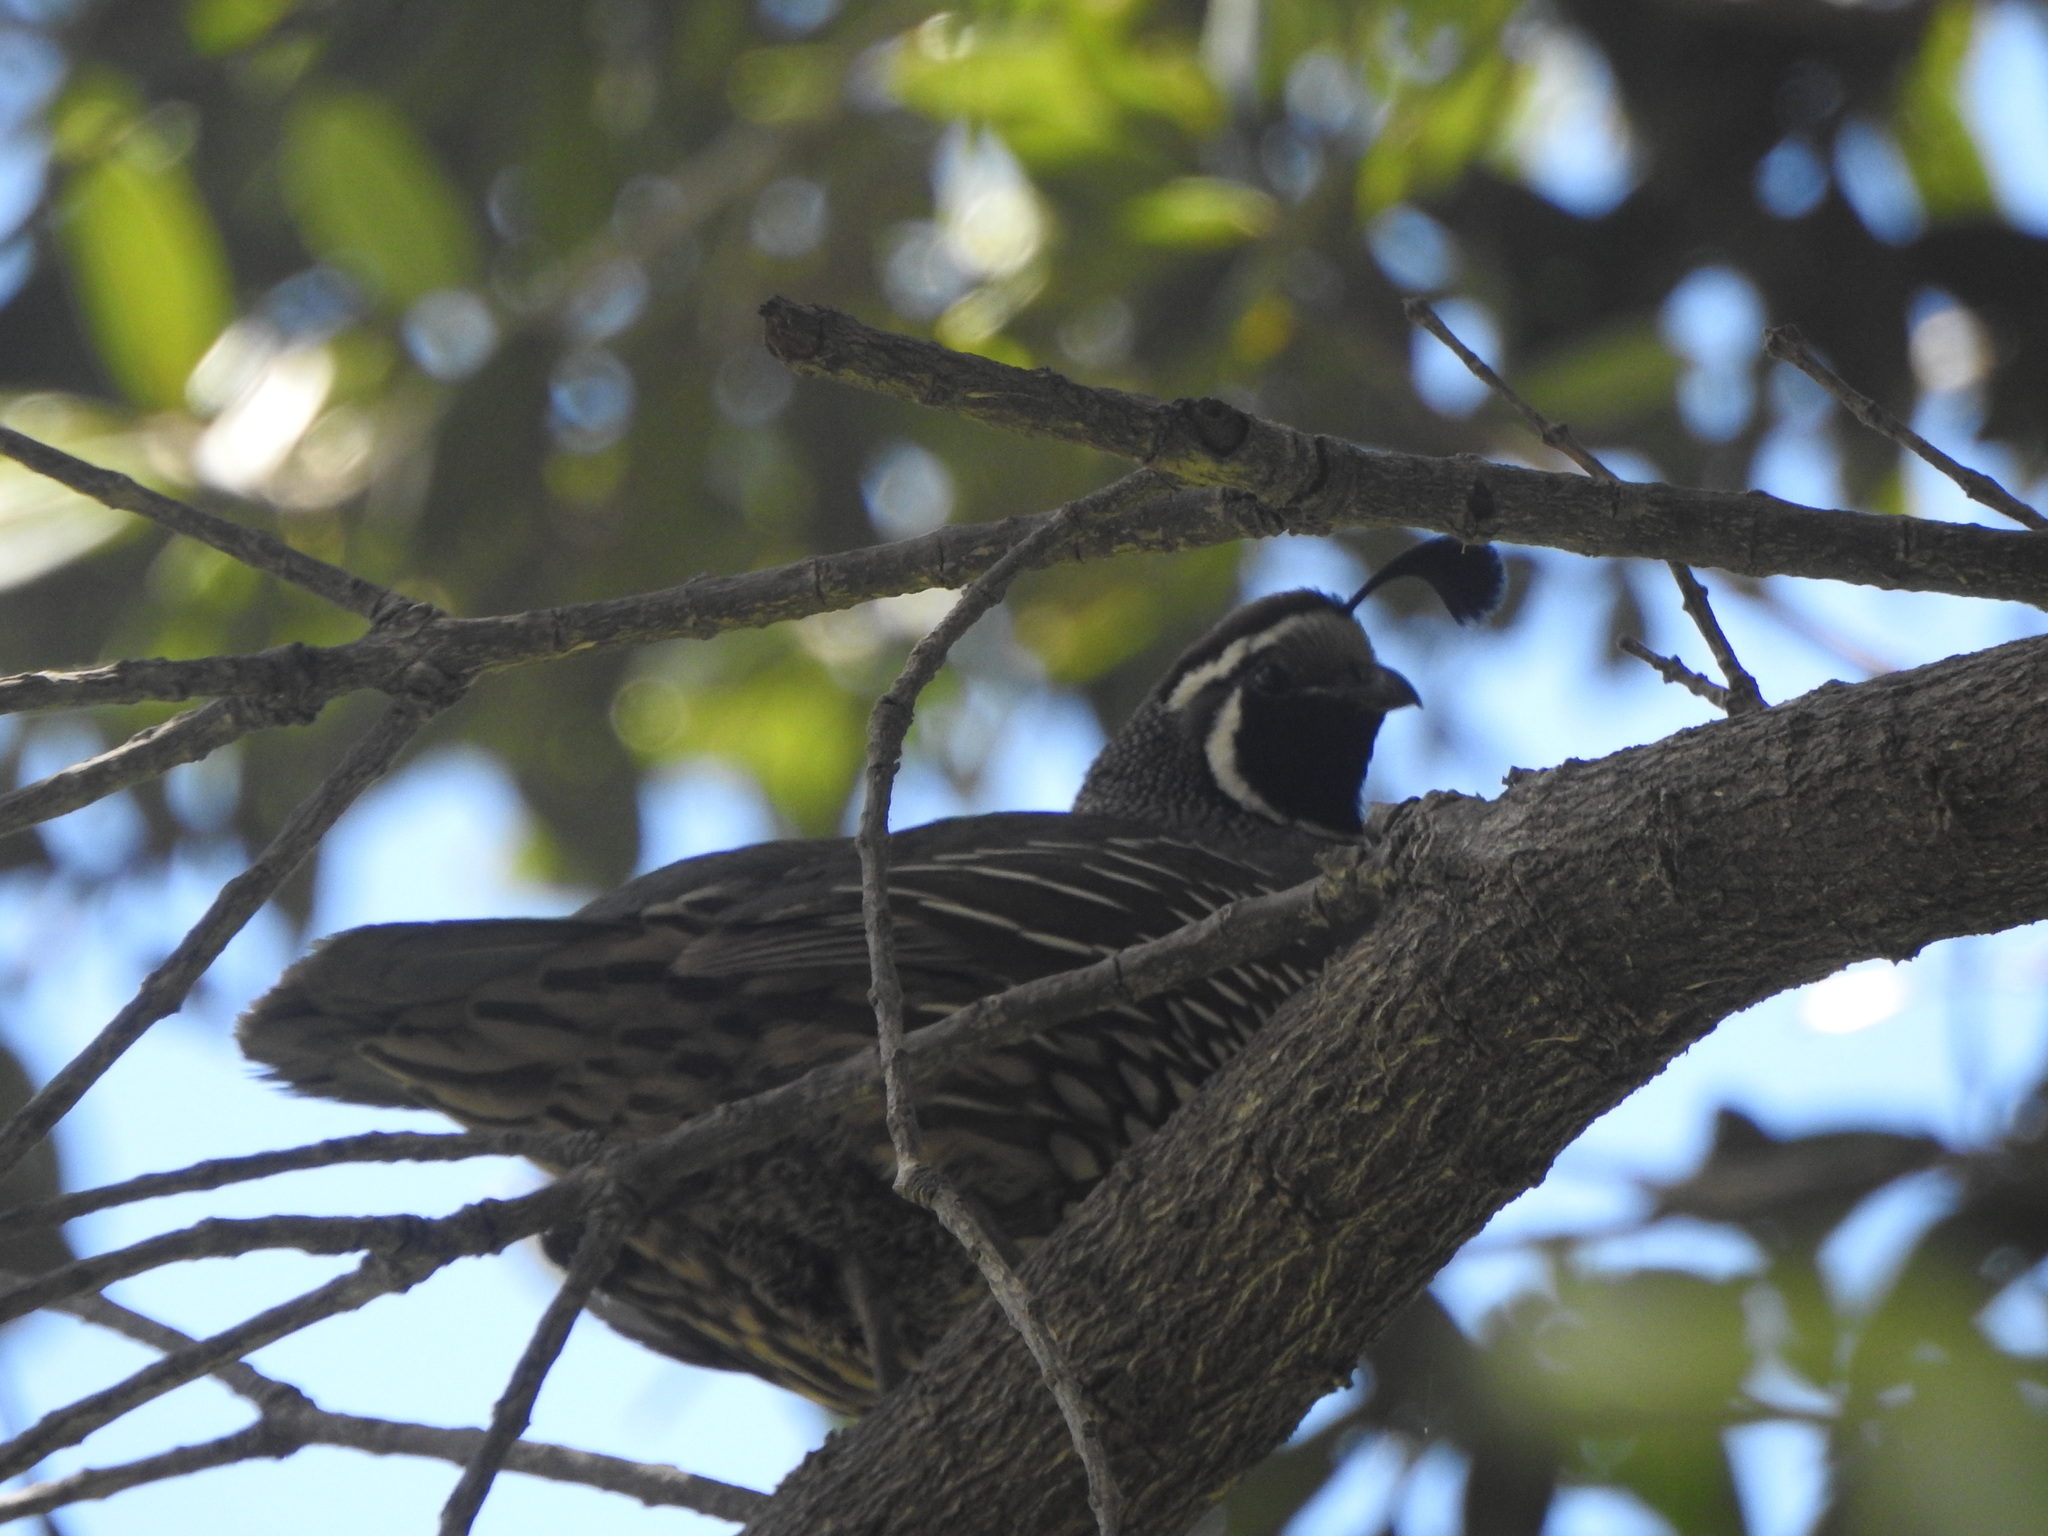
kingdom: Animalia
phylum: Chordata
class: Aves
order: Galliformes
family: Odontophoridae
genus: Callipepla
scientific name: Callipepla californica
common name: California quail
